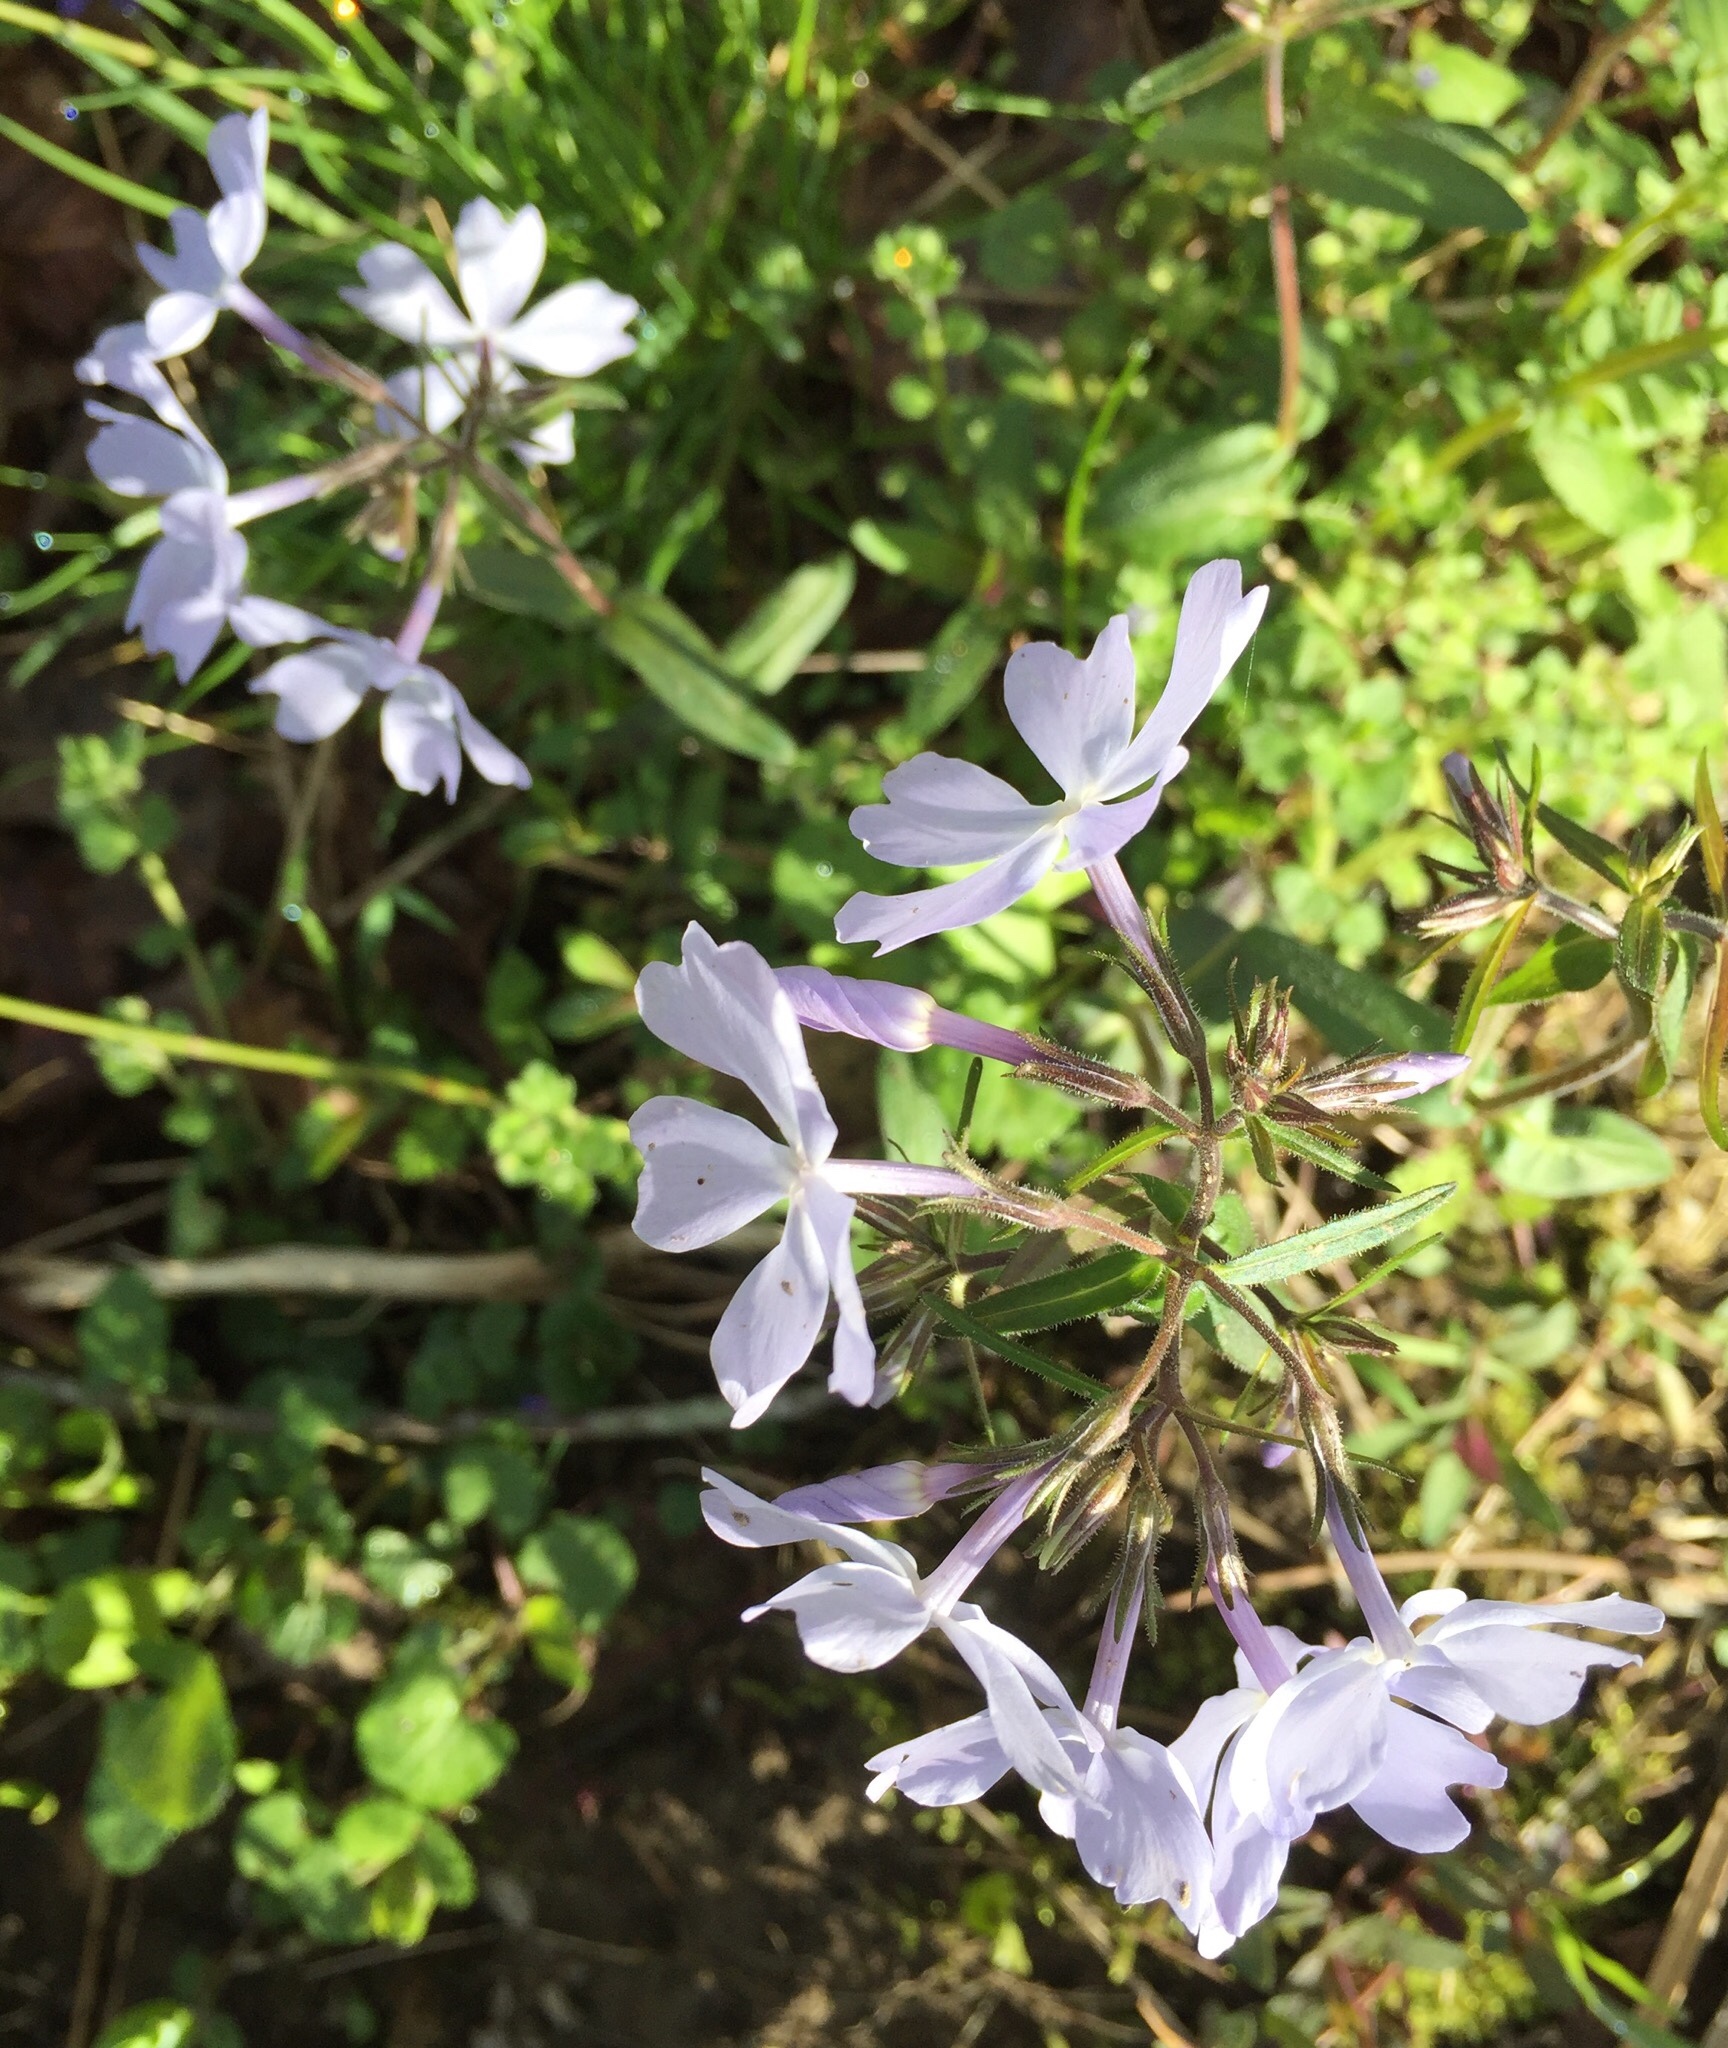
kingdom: Plantae
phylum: Tracheophyta
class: Magnoliopsida
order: Ericales
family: Polemoniaceae
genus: Phlox
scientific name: Phlox divaricata
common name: Blue phlox
